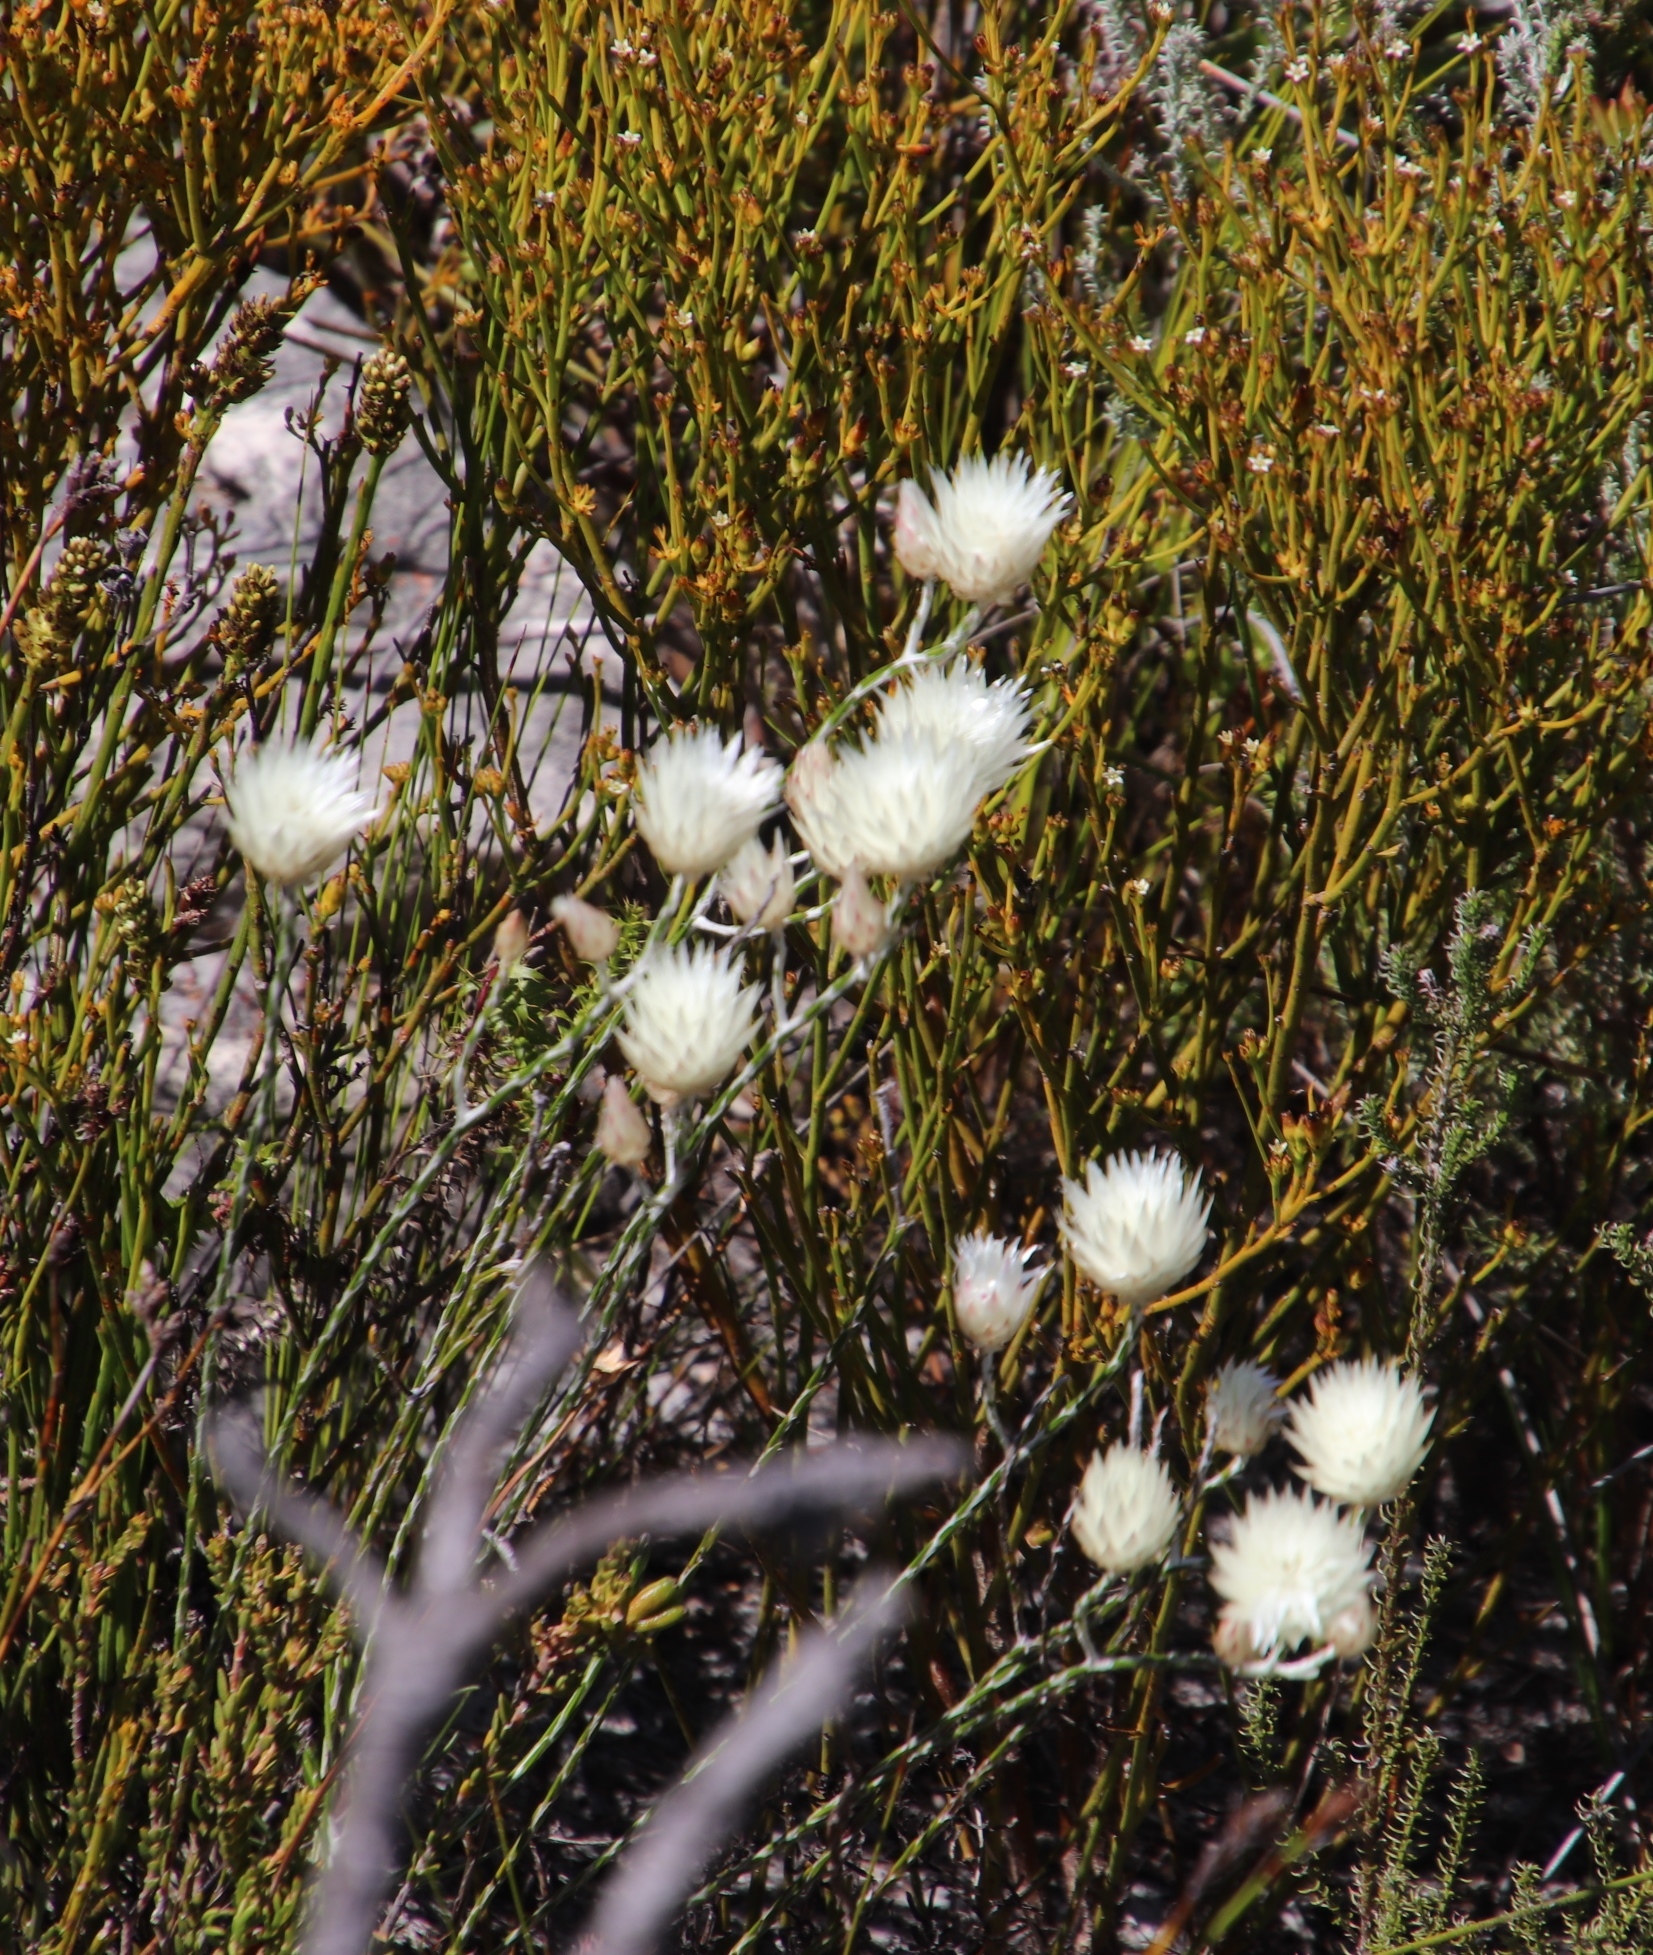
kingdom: Plantae
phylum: Tracheophyta
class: Magnoliopsida
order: Asterales
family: Asteraceae
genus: Edmondia
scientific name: Edmondia sesamoides
